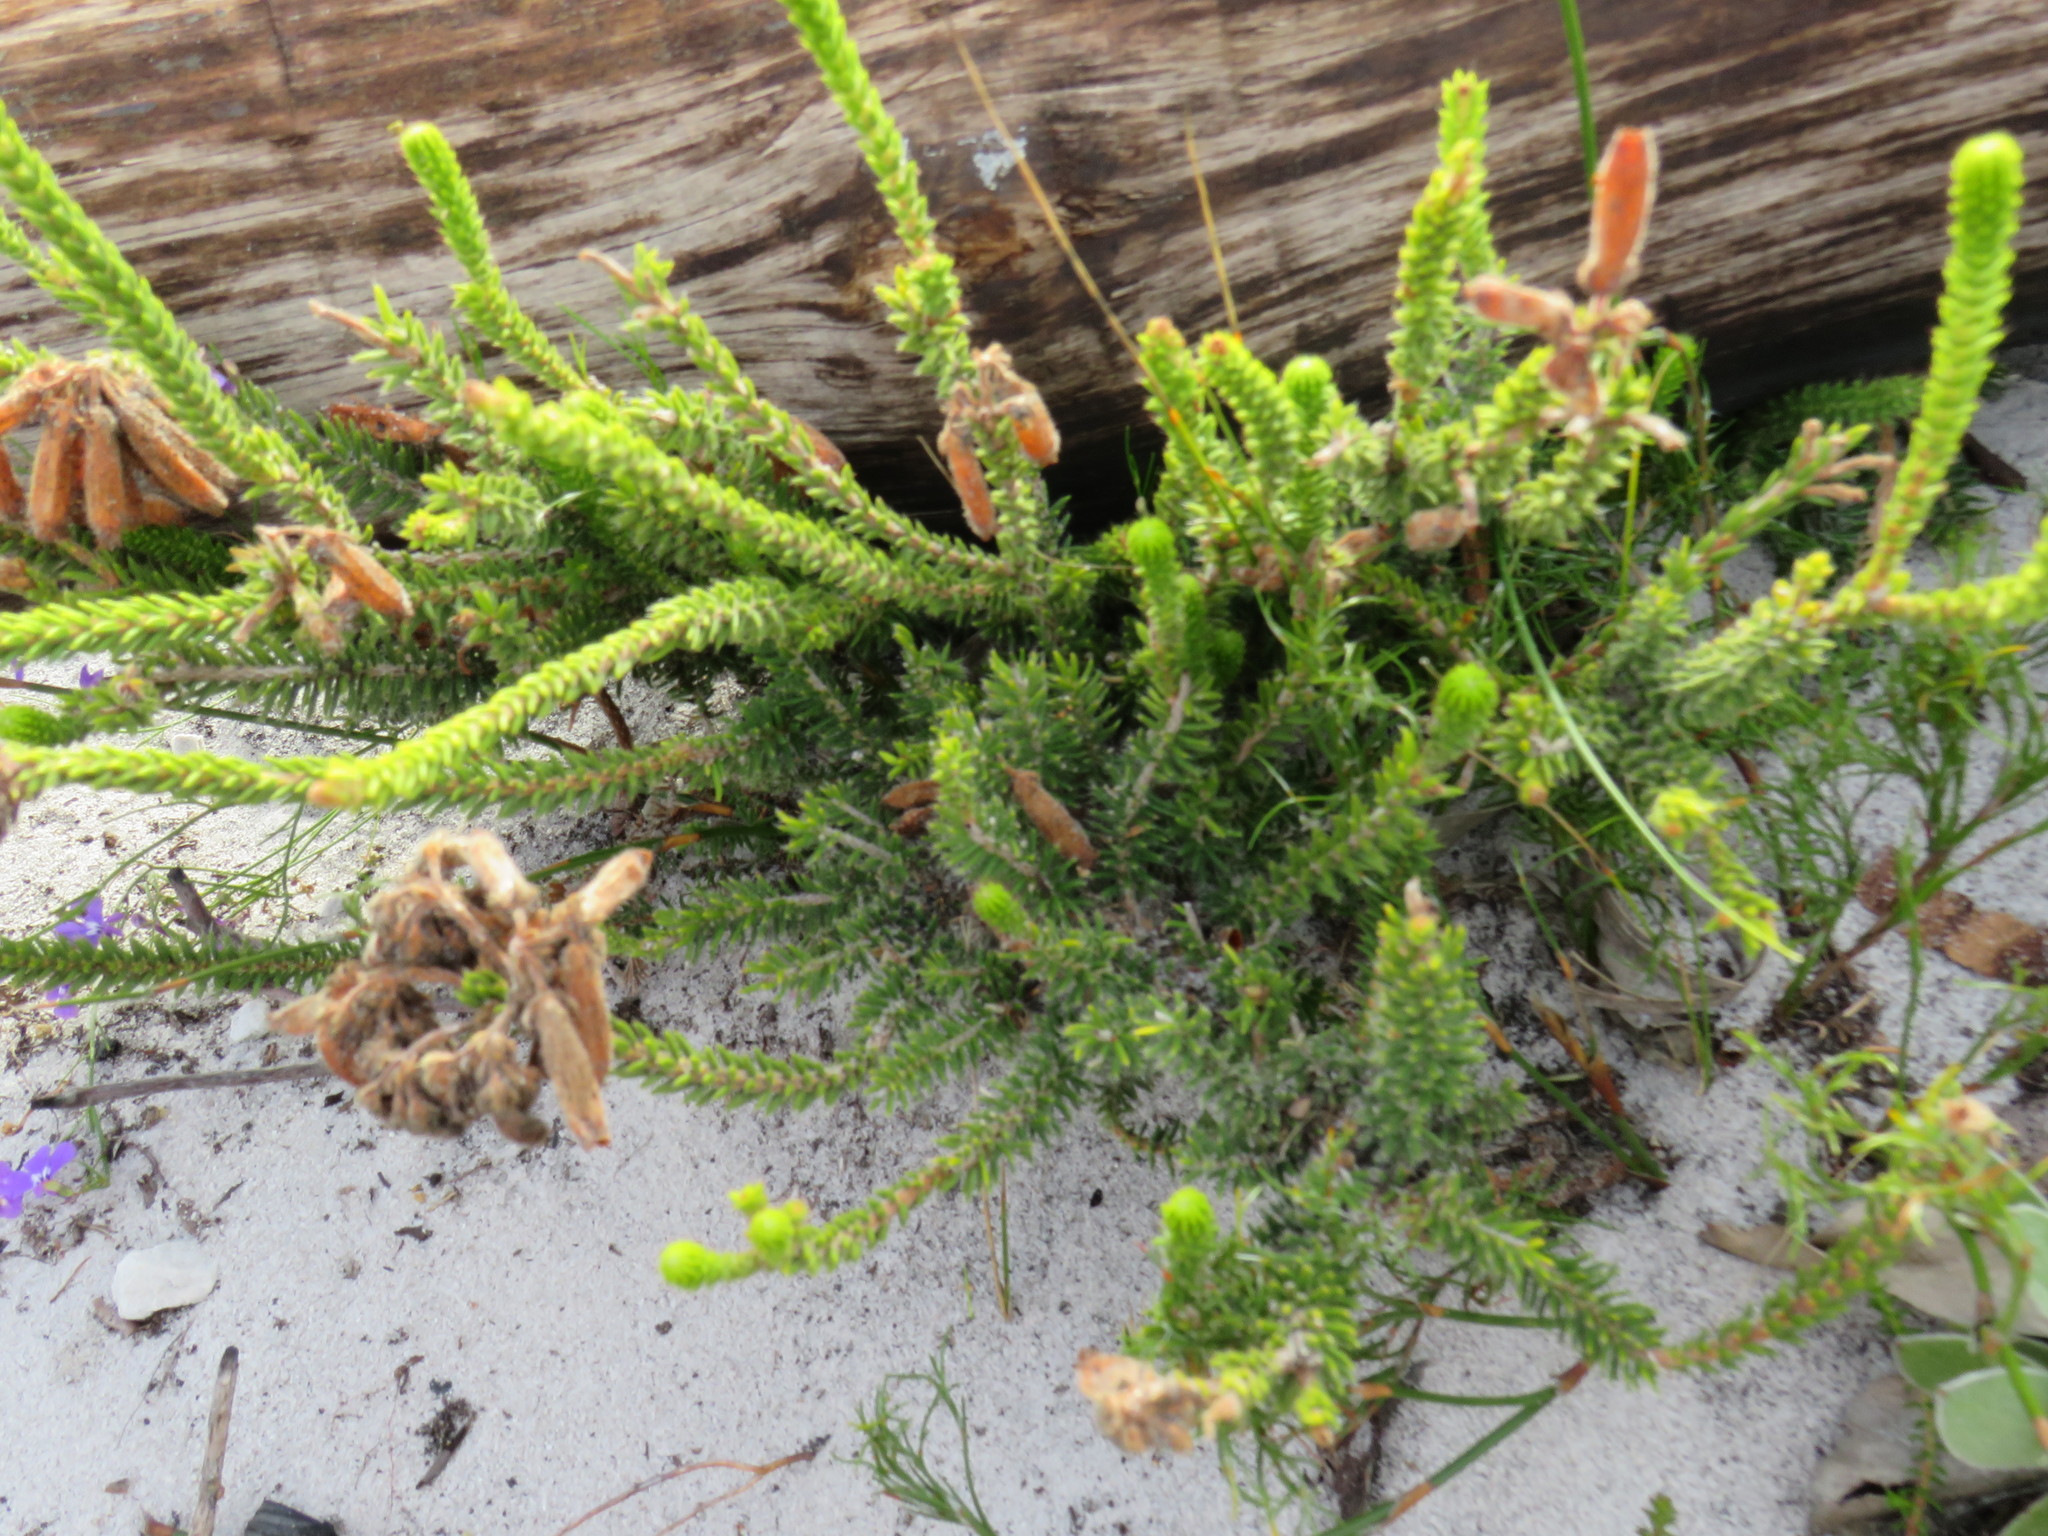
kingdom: Plantae
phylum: Tracheophyta
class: Magnoliopsida
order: Ericales
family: Ericaceae
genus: Erica
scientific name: Erica cerinthoides
